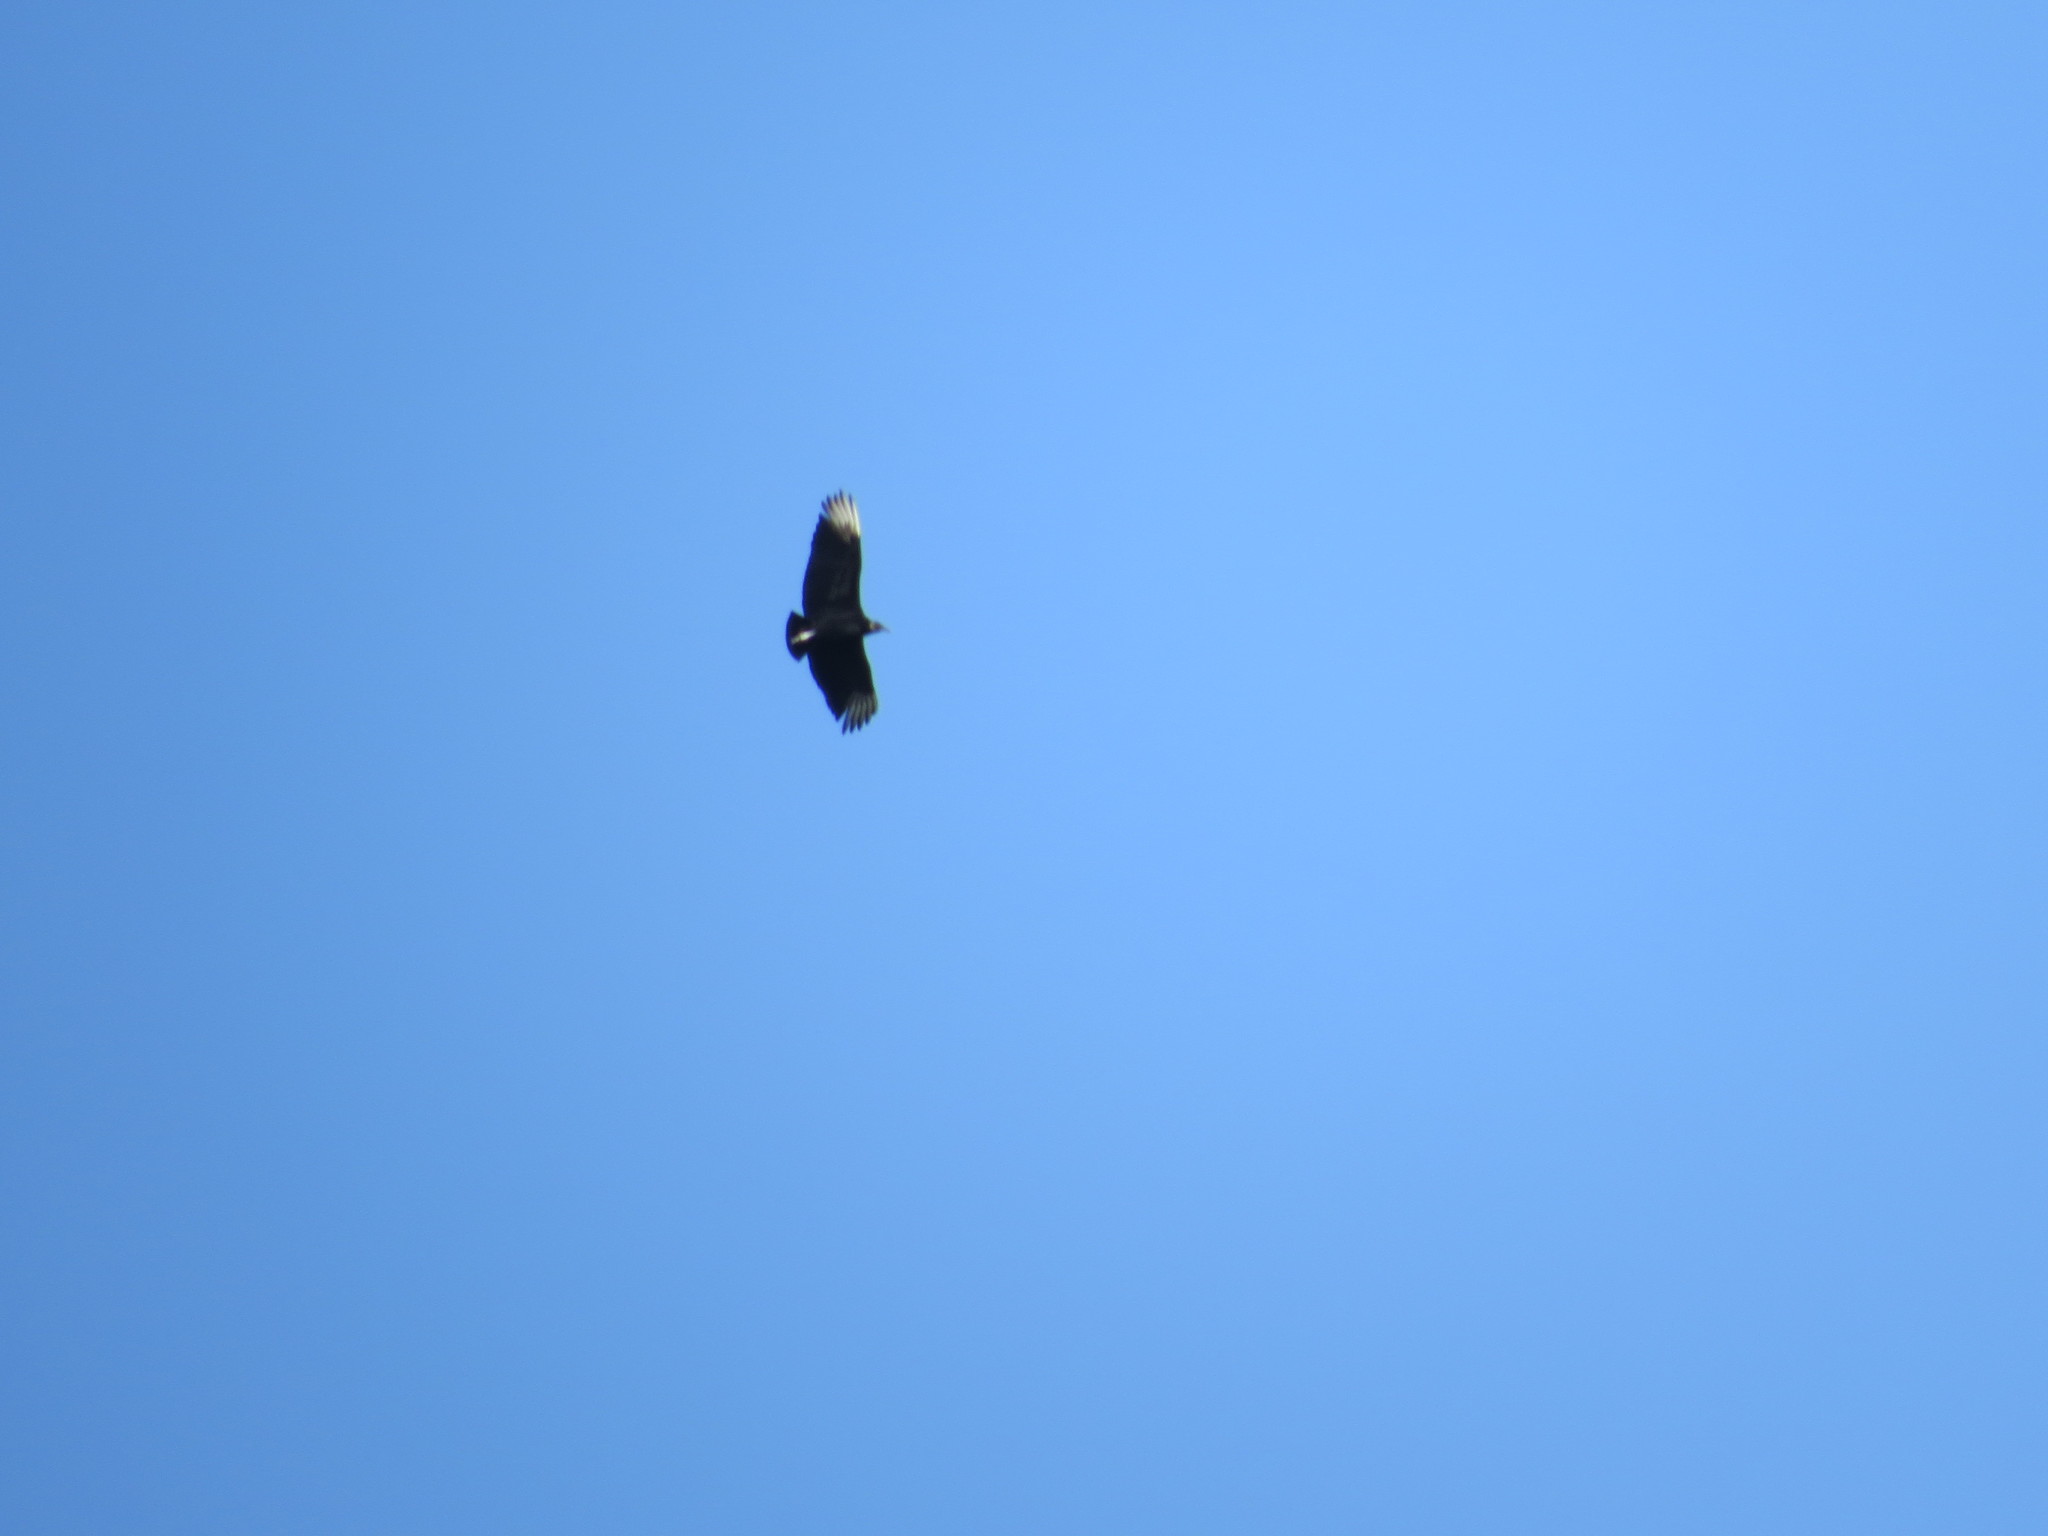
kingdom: Animalia
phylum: Chordata
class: Aves
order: Accipitriformes
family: Cathartidae
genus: Coragyps
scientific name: Coragyps atratus
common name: Black vulture
